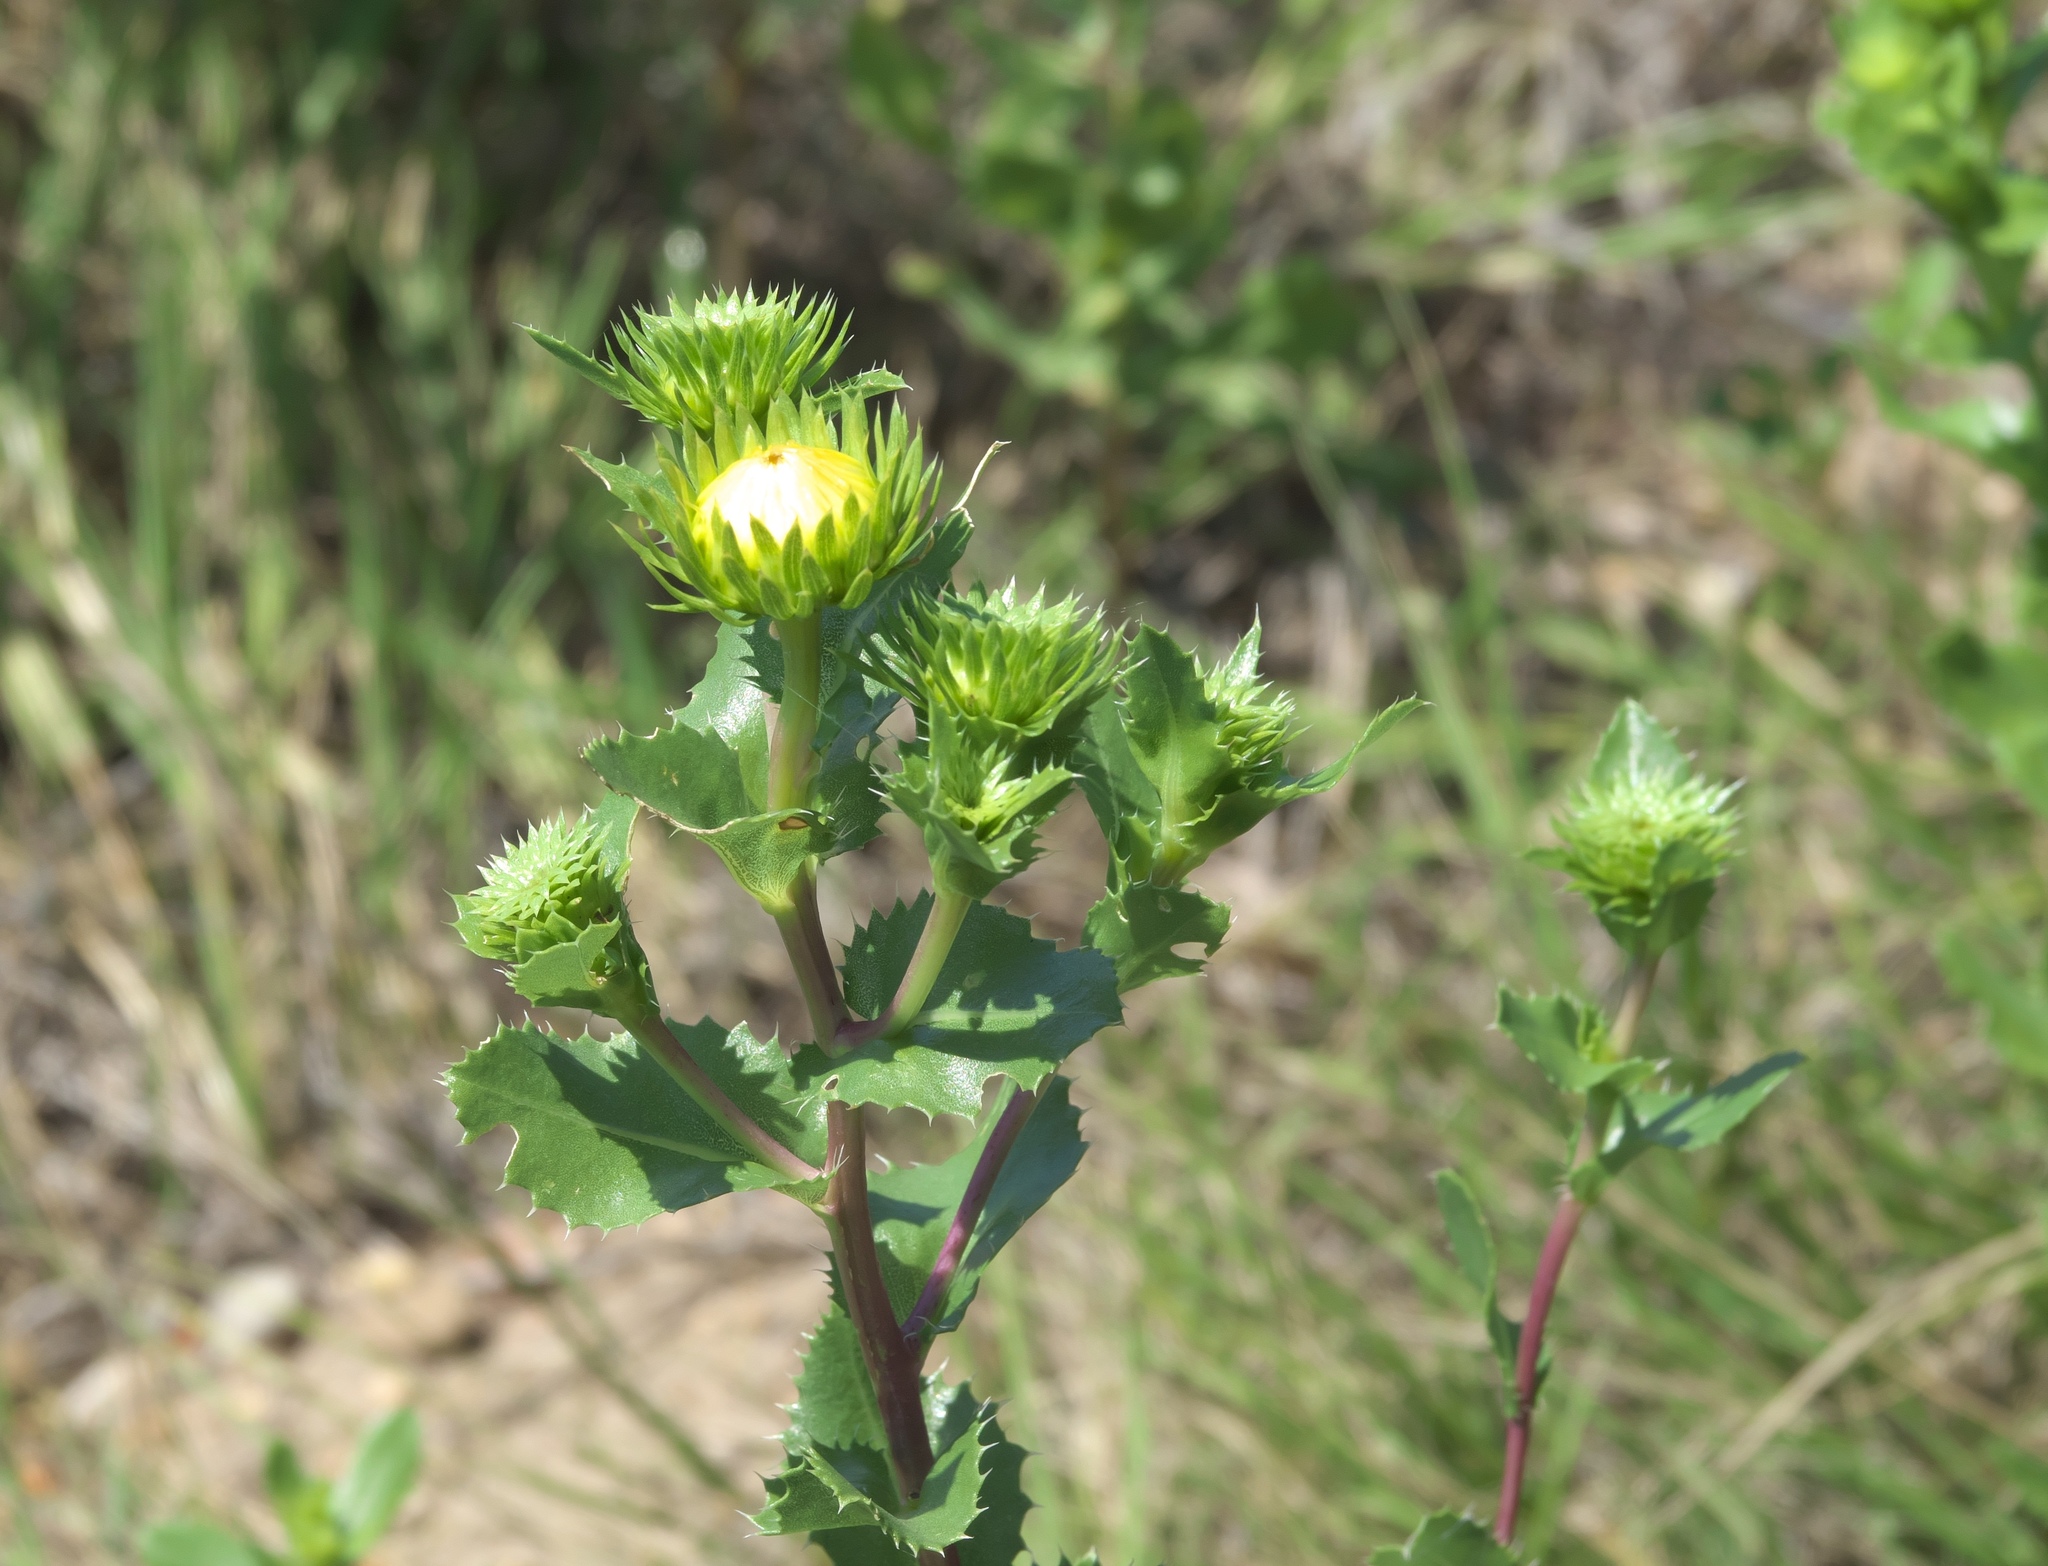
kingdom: Plantae
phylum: Tracheophyta
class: Magnoliopsida
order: Asterales
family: Asteraceae
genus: Grindelia
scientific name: Grindelia ciliata
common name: Goldenweed
